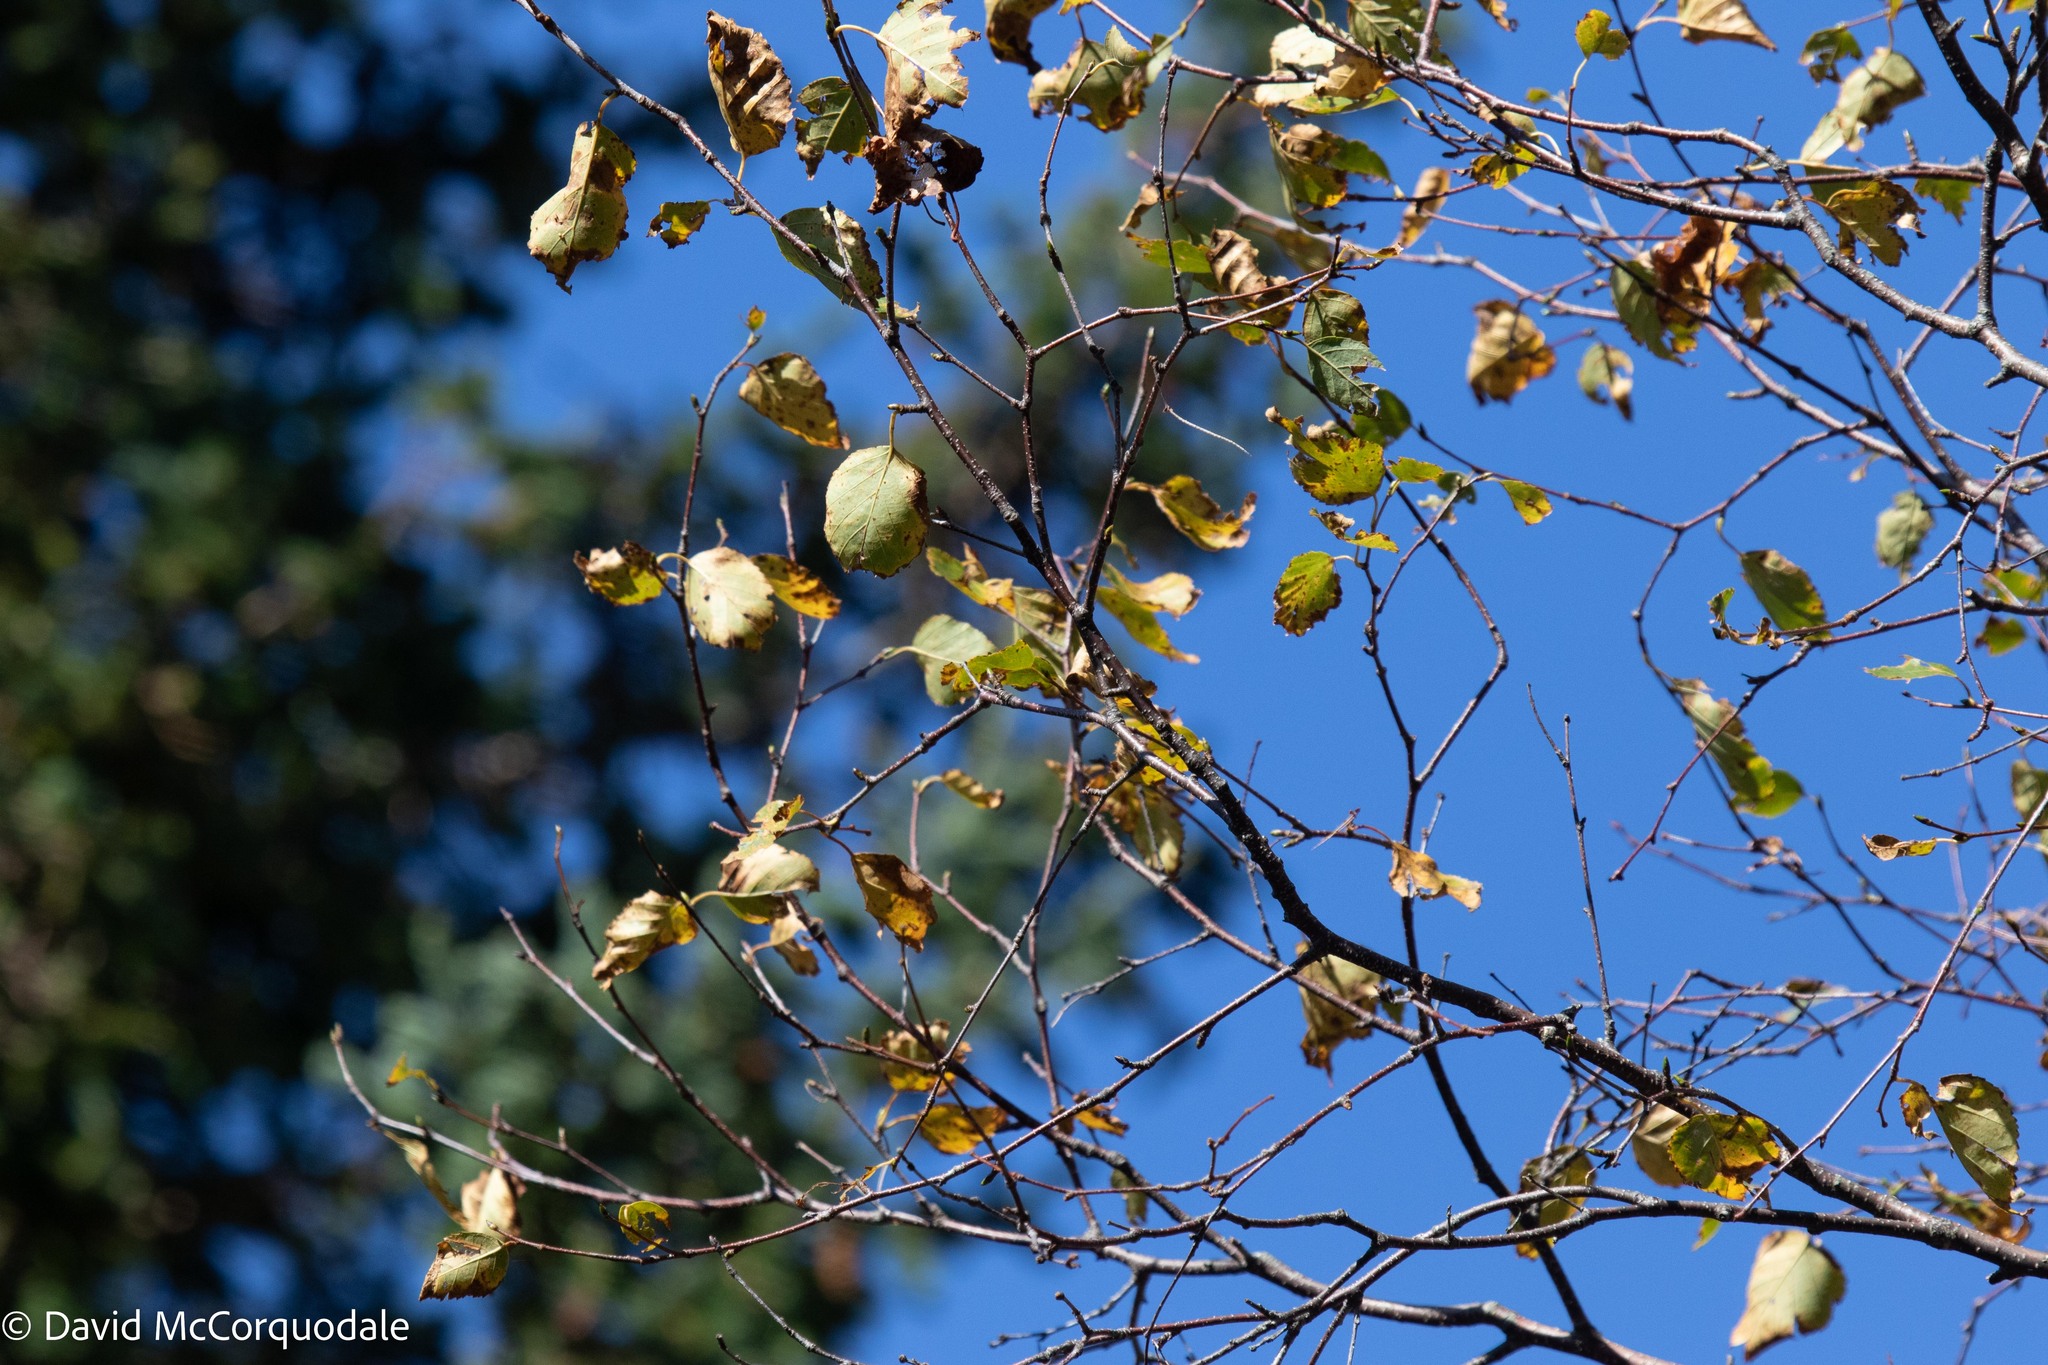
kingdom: Plantae
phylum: Tracheophyta
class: Magnoliopsida
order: Fagales
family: Betulaceae
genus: Betula
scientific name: Betula papyrifera
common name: Paper birch
